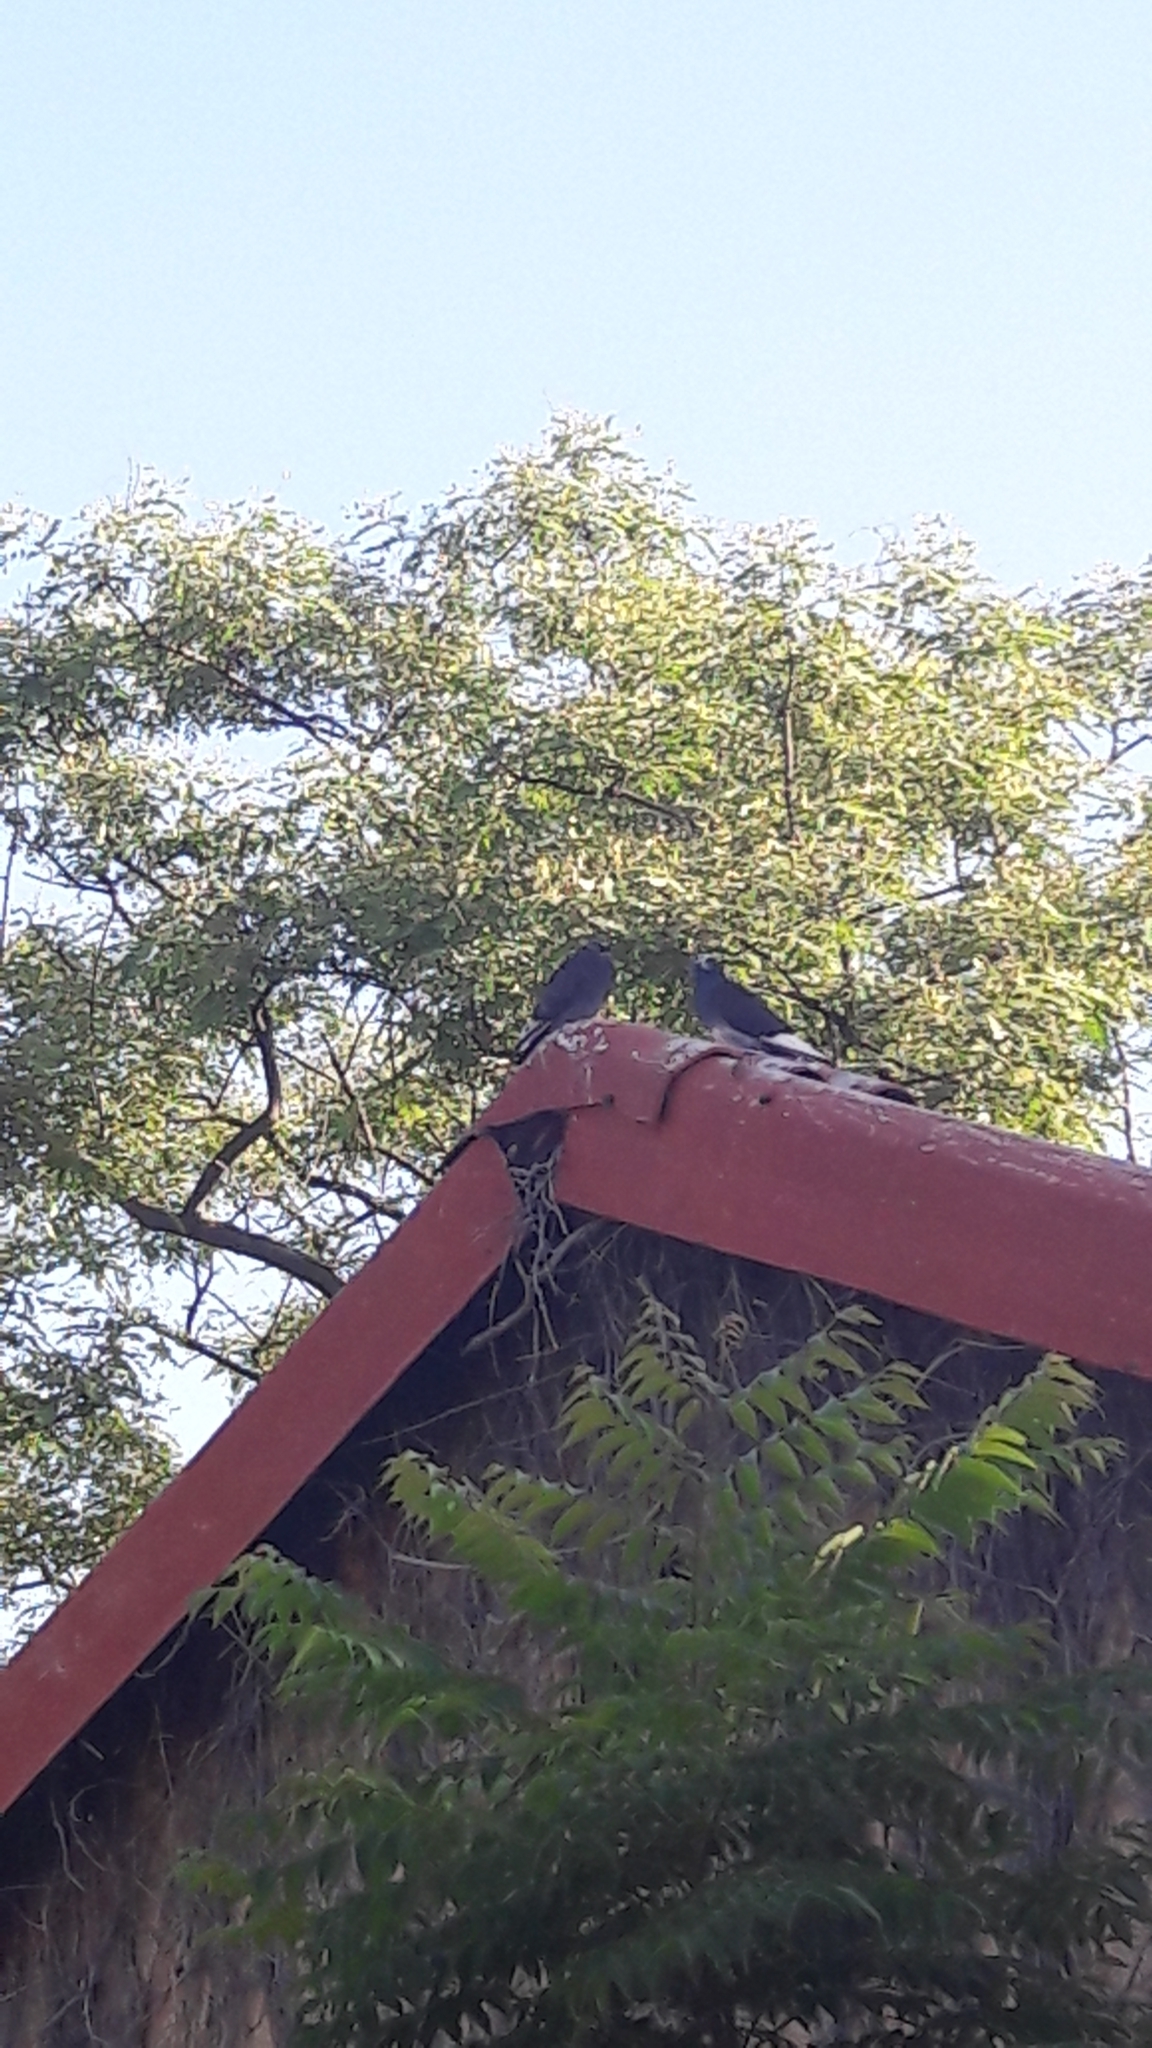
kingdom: Animalia
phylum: Chordata
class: Aves
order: Columbiformes
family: Columbidae
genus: Columba
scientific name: Columba livia
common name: Rock pigeon
